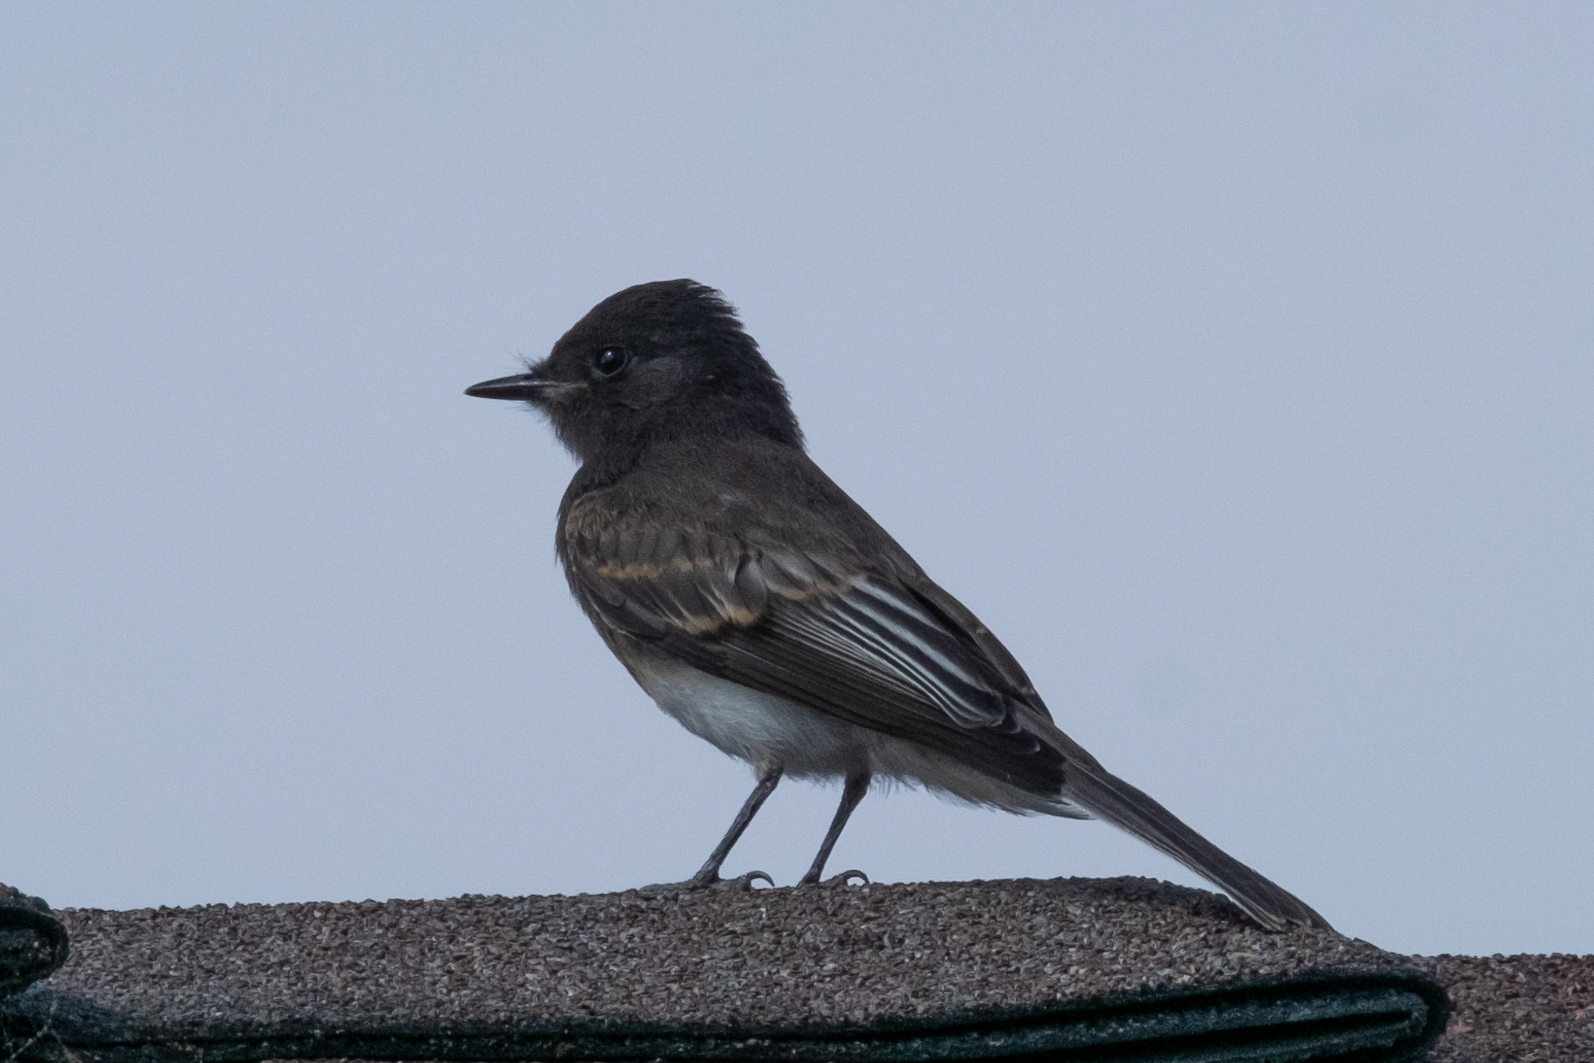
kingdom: Animalia
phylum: Chordata
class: Aves
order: Passeriformes
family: Tyrannidae
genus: Sayornis
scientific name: Sayornis nigricans
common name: Black phoebe
